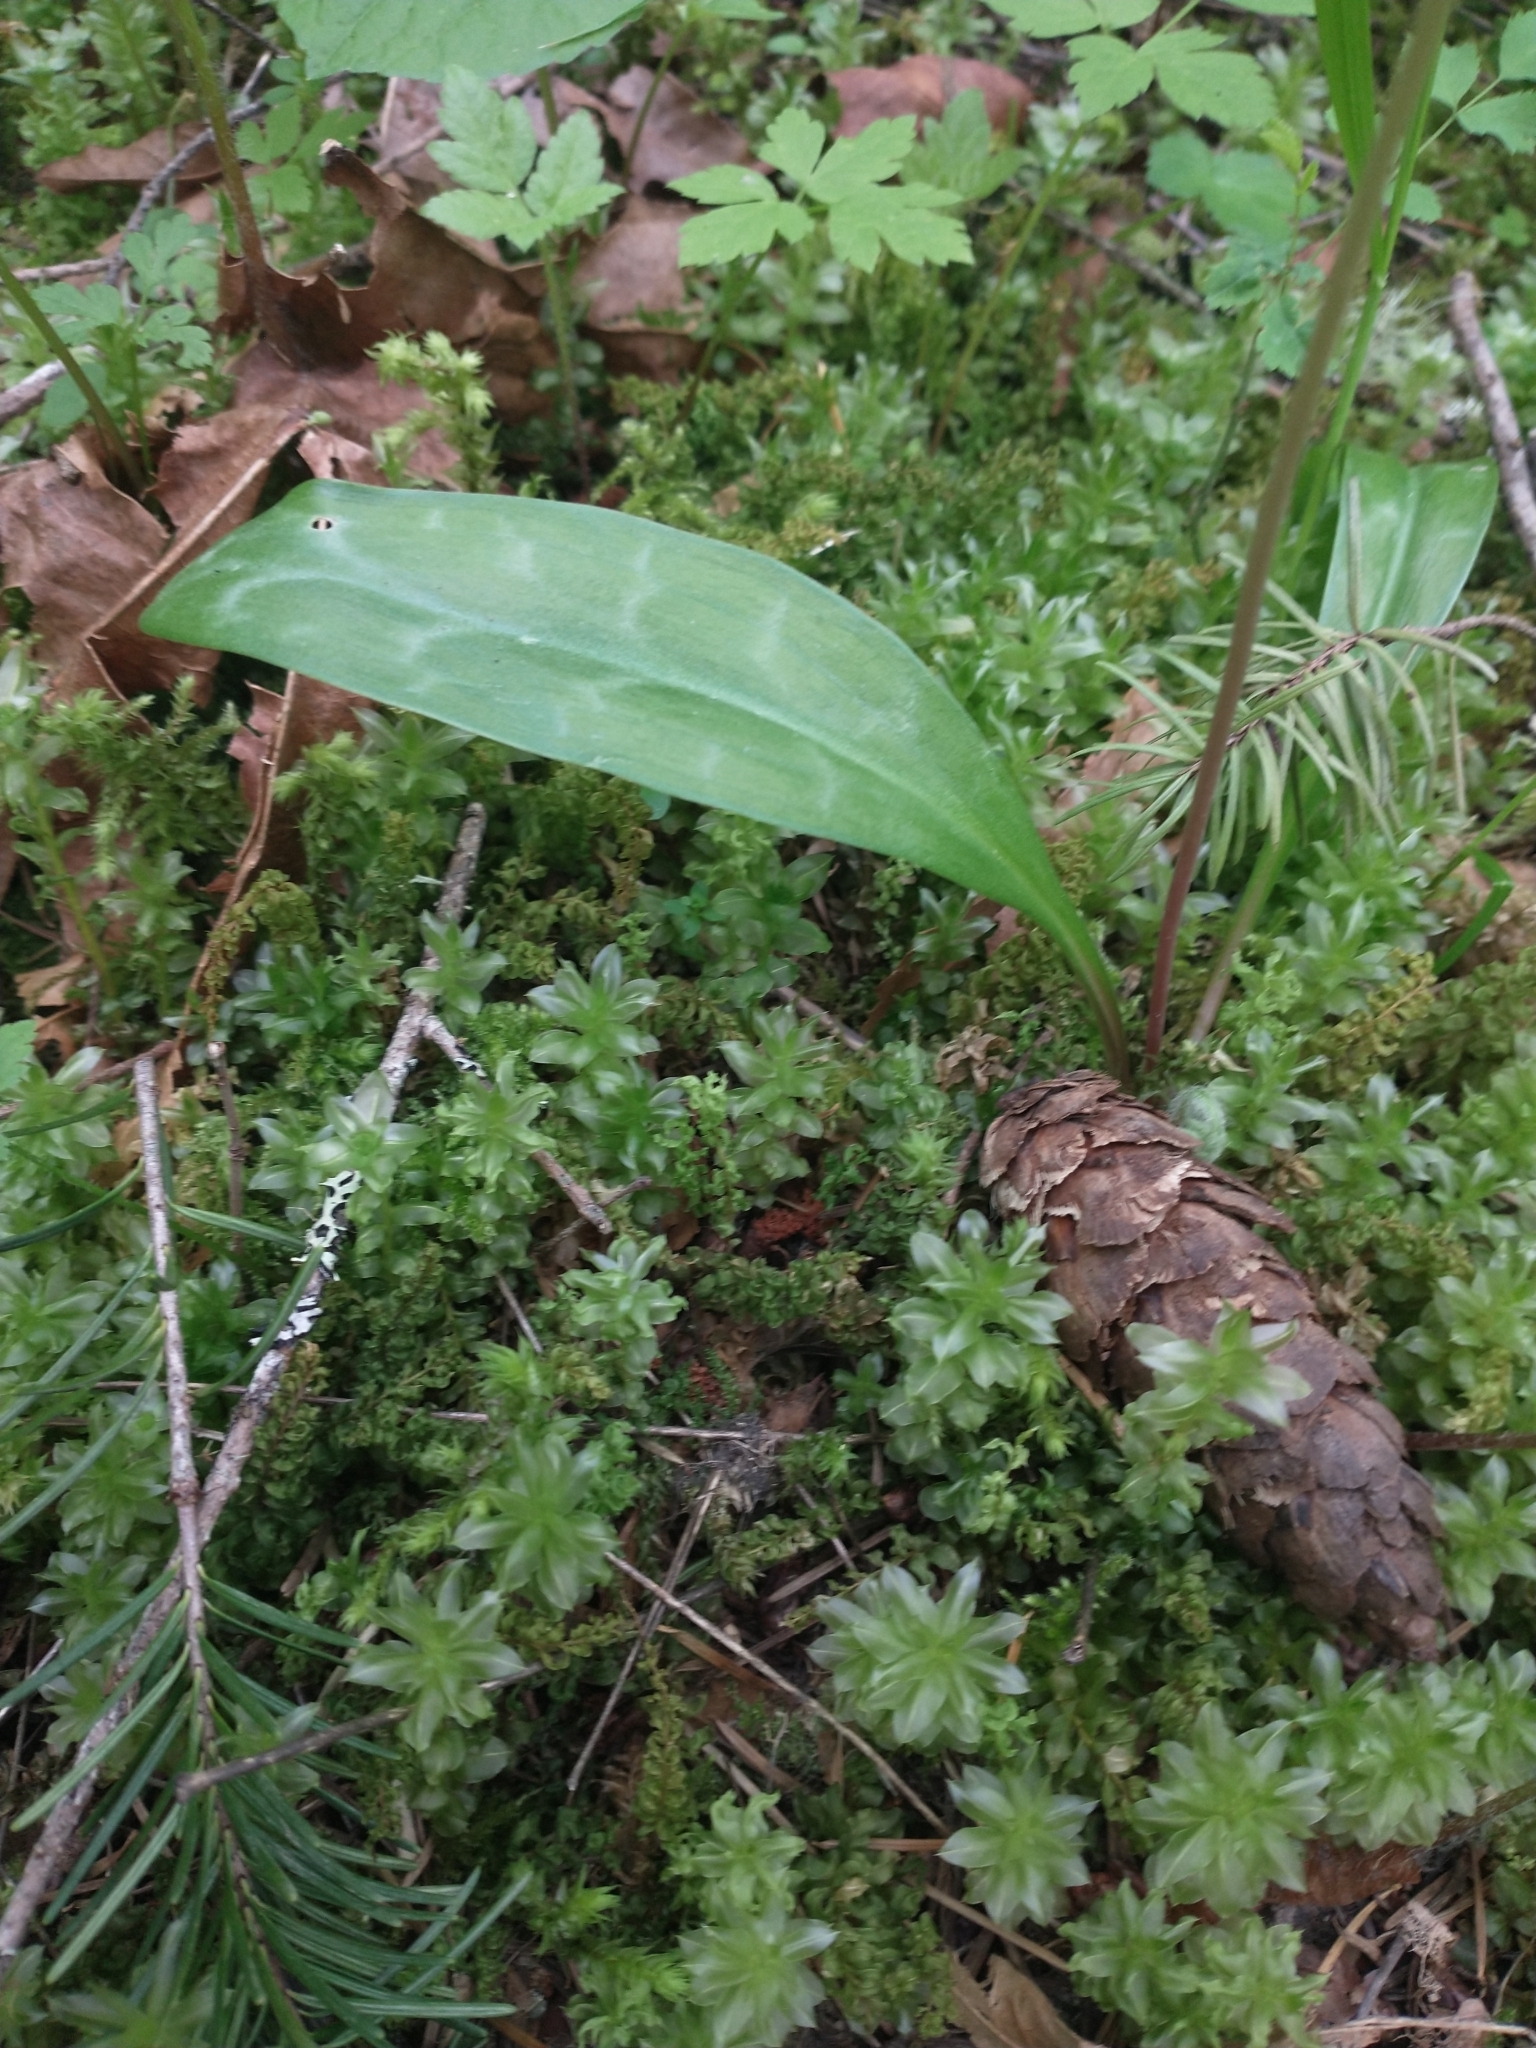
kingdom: Plantae
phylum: Tracheophyta
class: Pinopsida
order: Pinales
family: Pinaceae
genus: Pseudotsuga
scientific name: Pseudotsuga menziesii
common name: Douglas fir
